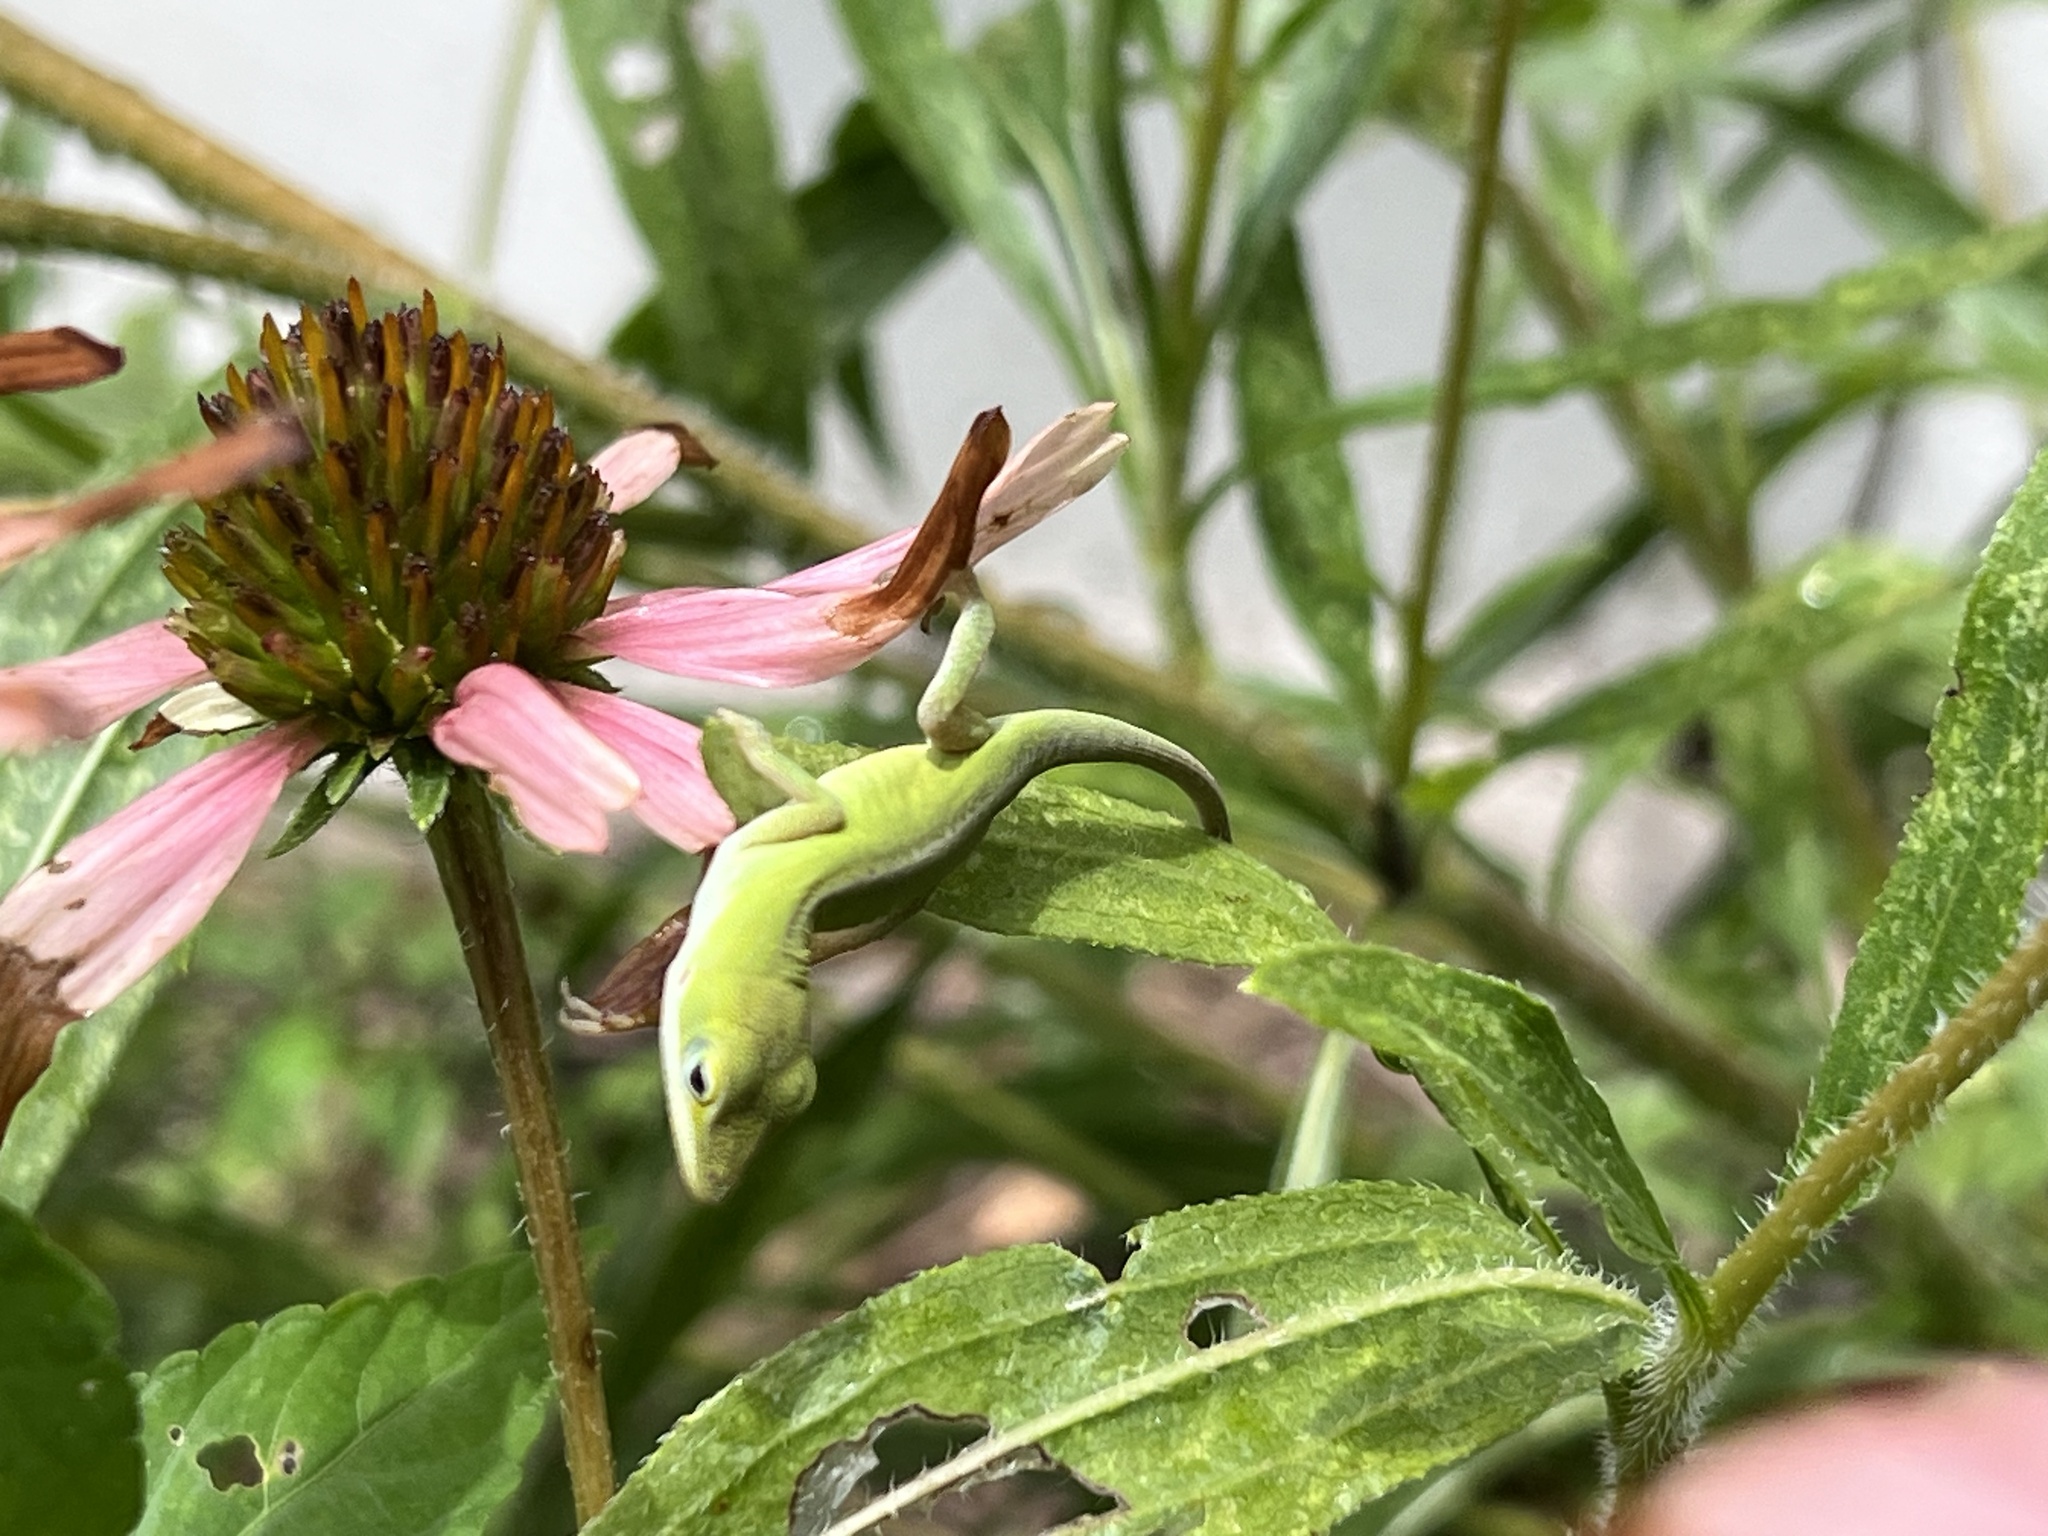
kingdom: Animalia
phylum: Chordata
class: Squamata
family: Dactyloidae
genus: Anolis
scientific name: Anolis carolinensis
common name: Green anole
